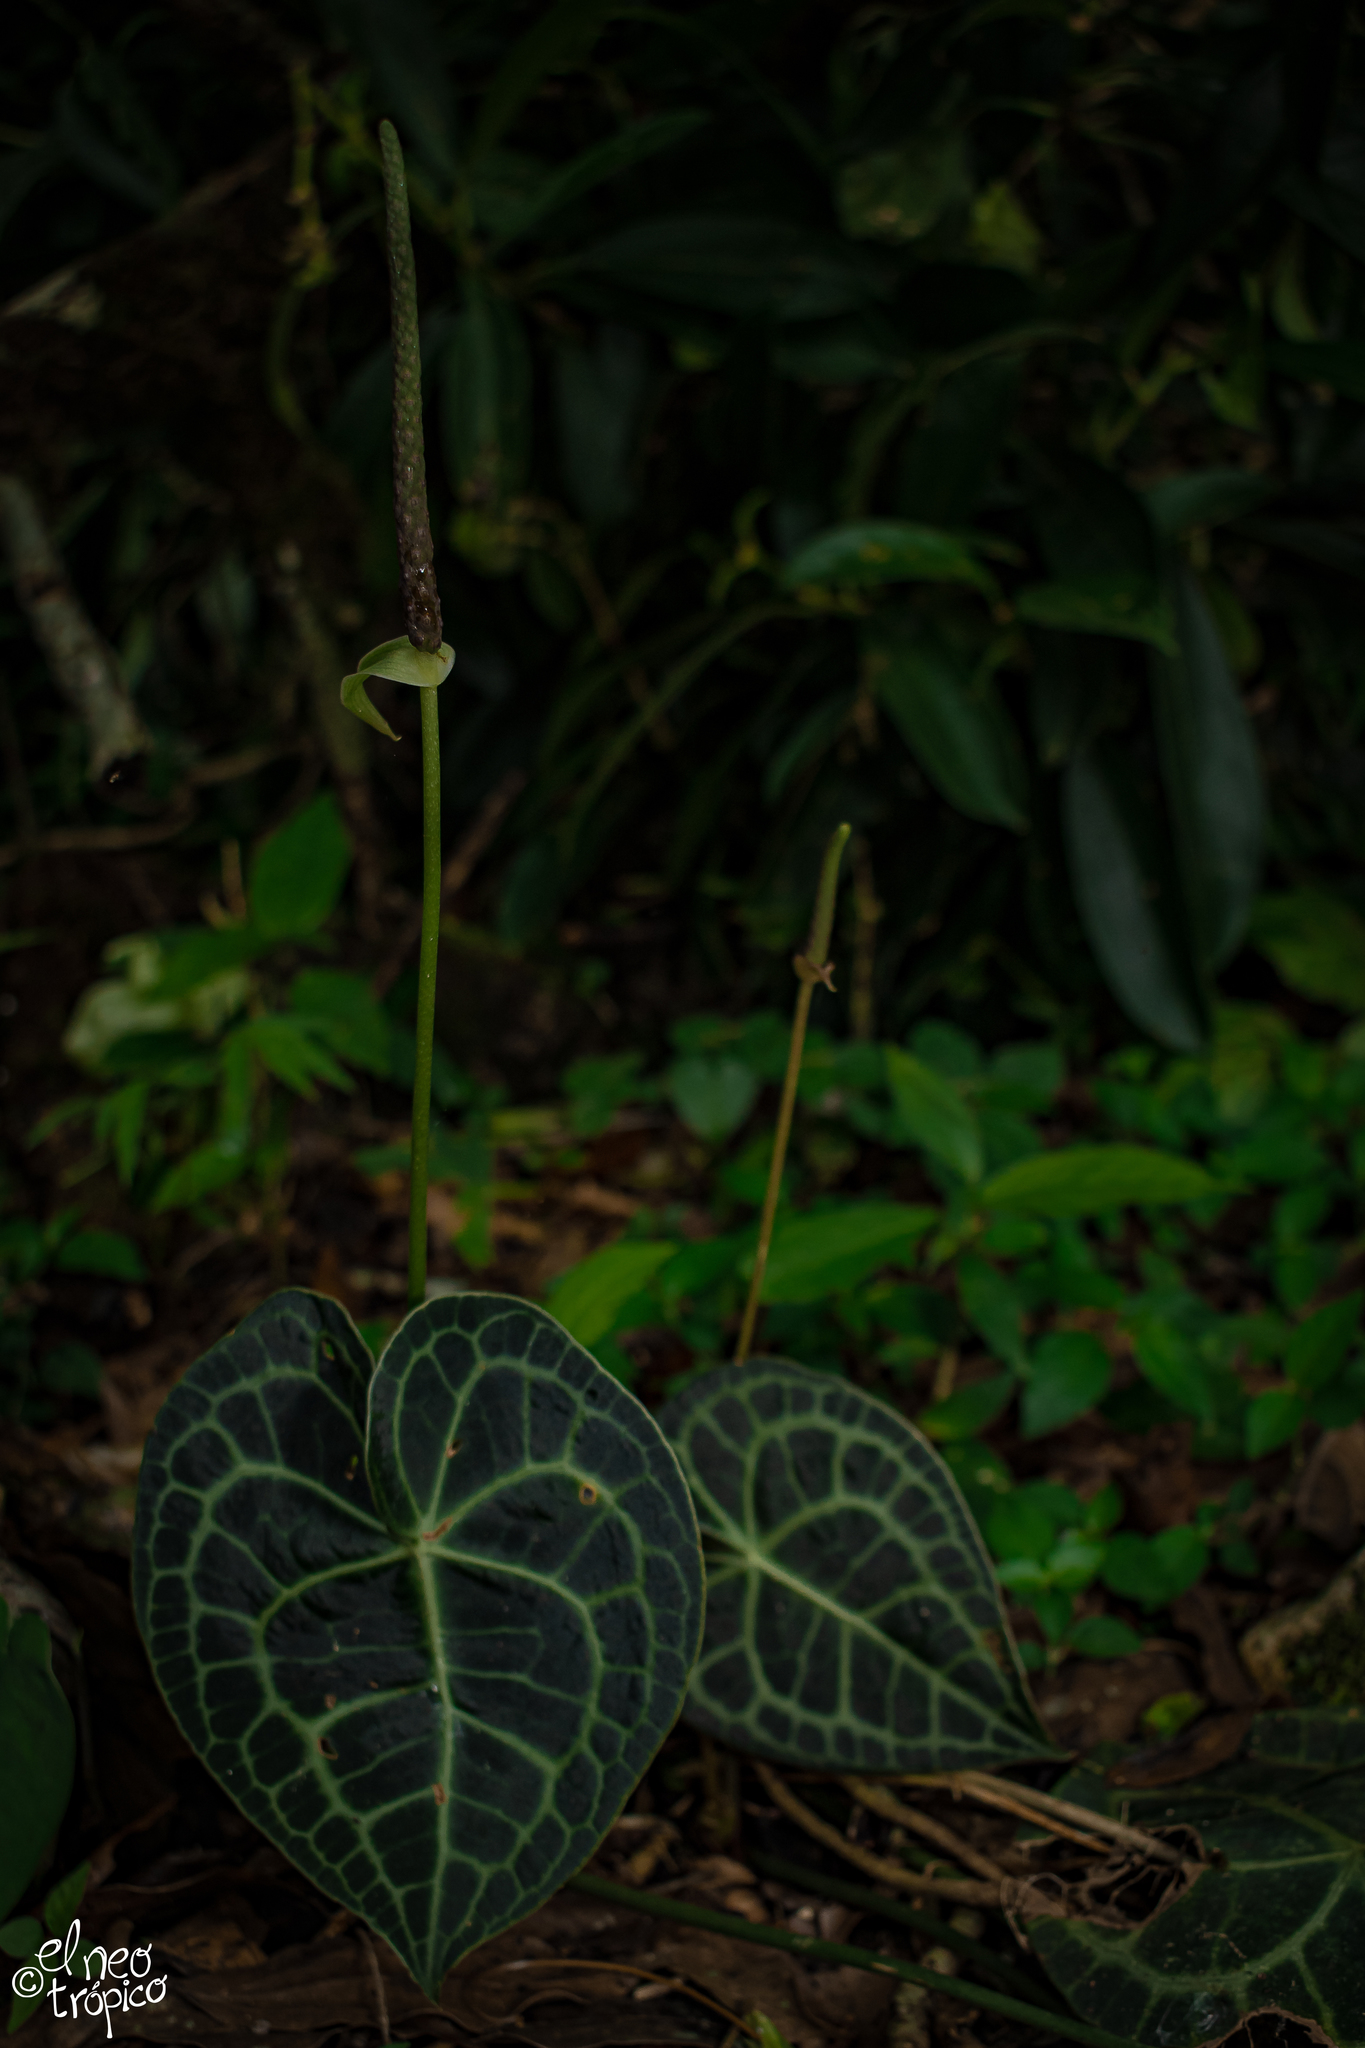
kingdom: Plantae
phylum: Tracheophyta
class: Liliopsida
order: Alismatales
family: Araceae
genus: Anthurium
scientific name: Anthurium clarinervium
